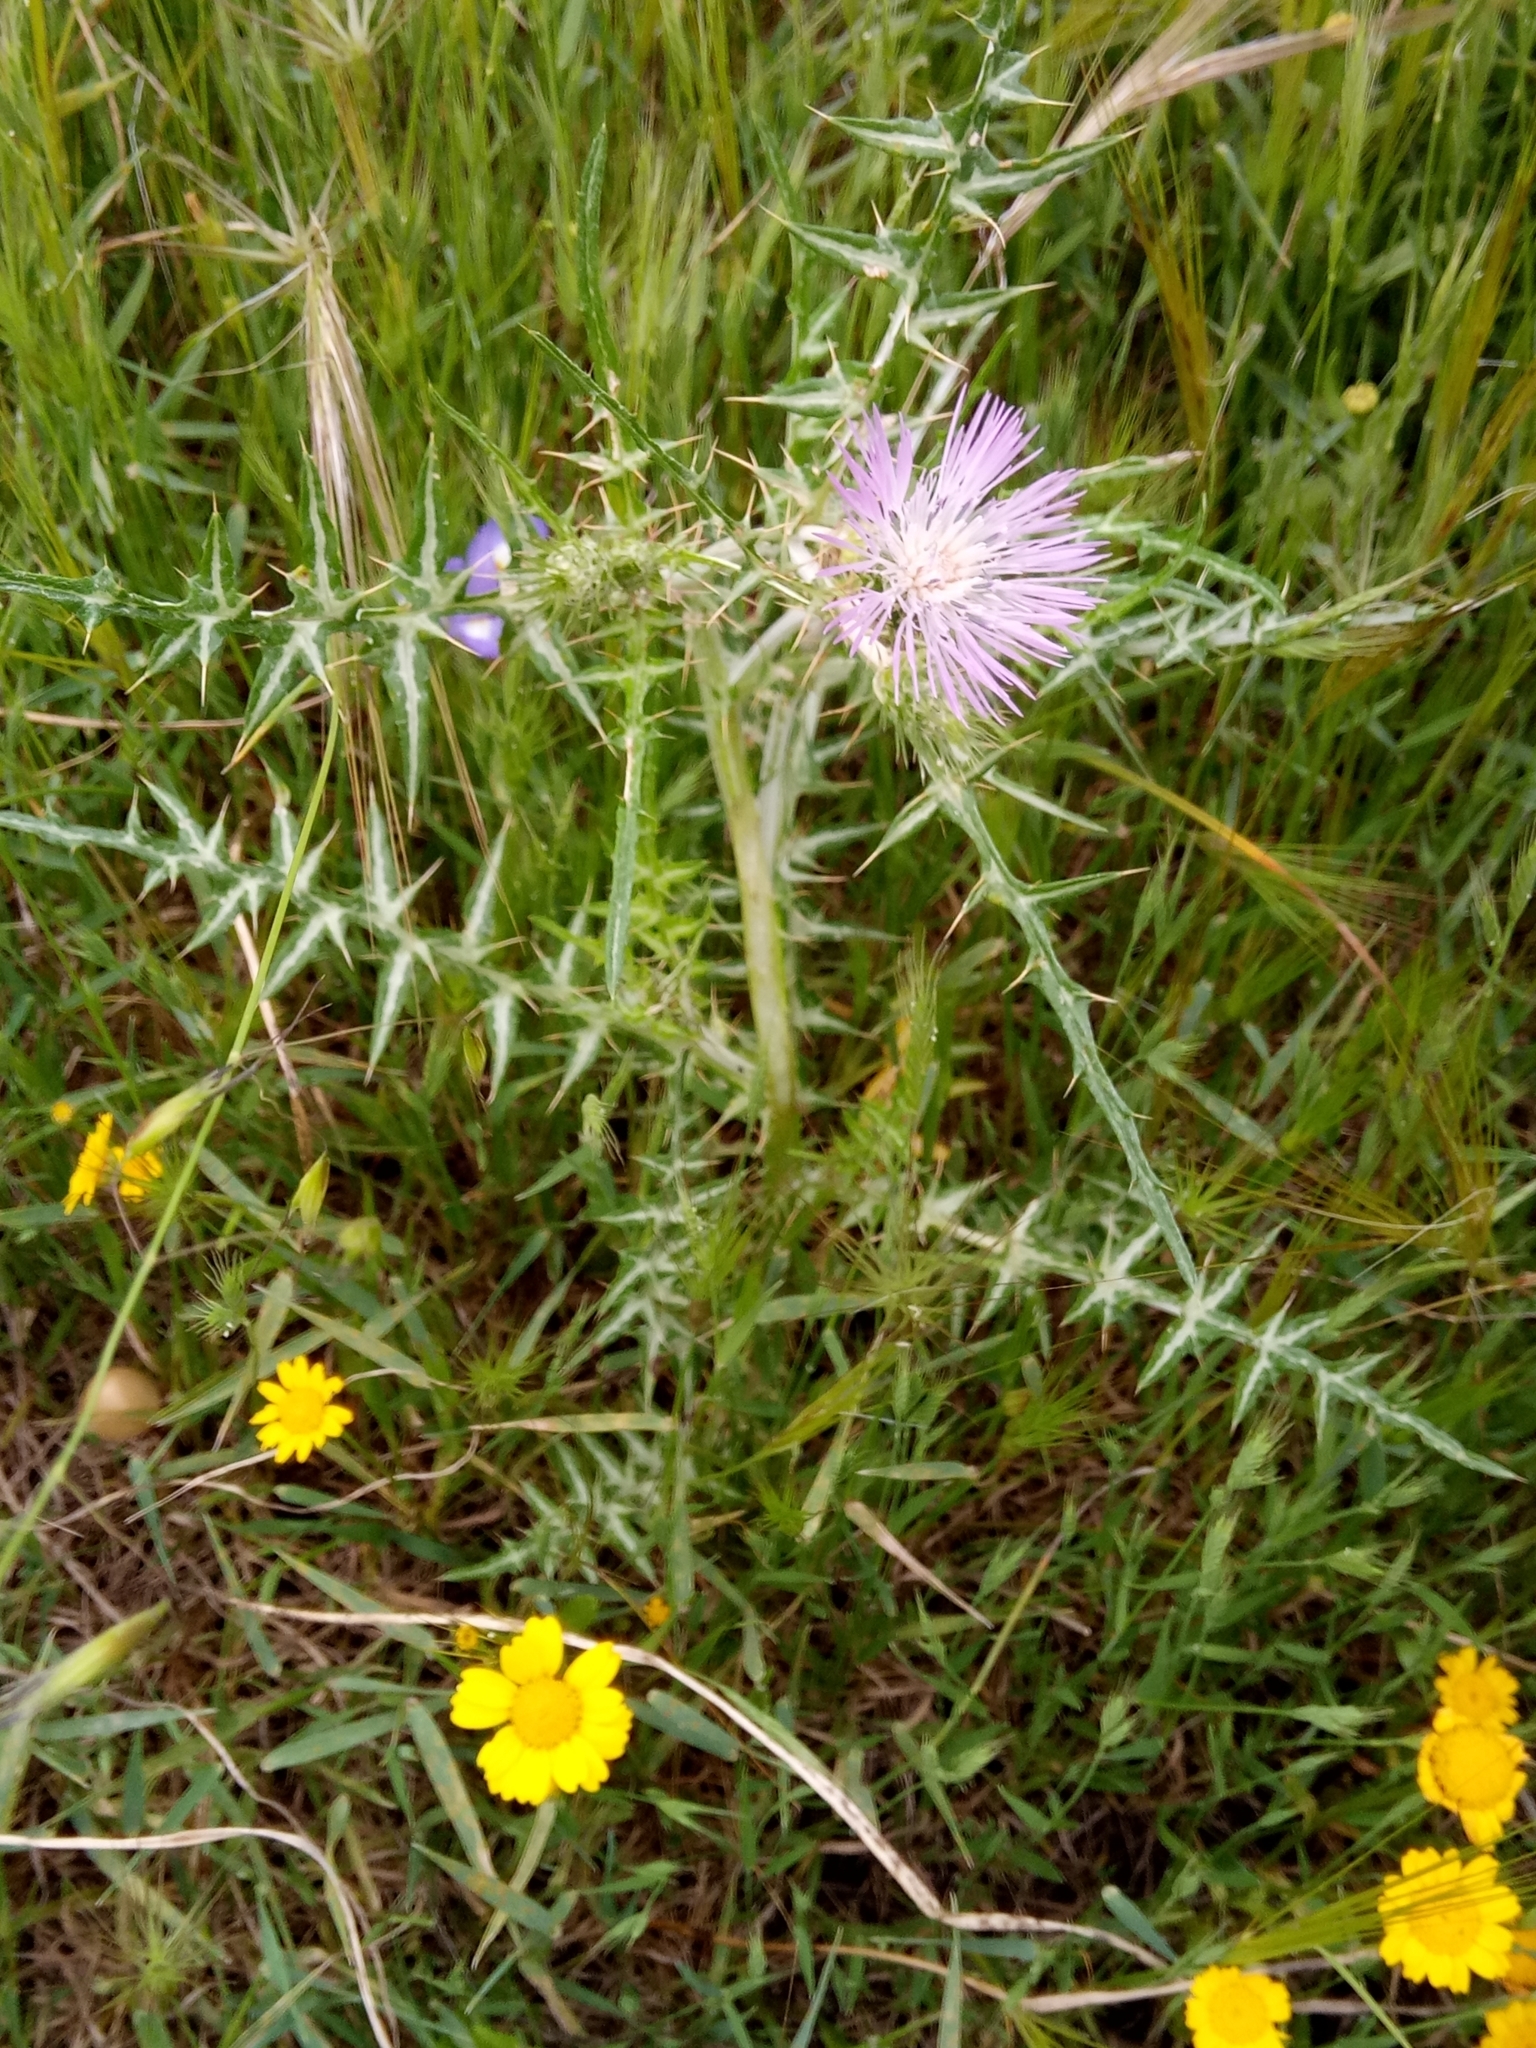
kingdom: Plantae
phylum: Tracheophyta
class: Magnoliopsida
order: Asterales
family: Asteraceae
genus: Galactites
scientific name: Galactites tomentosa
